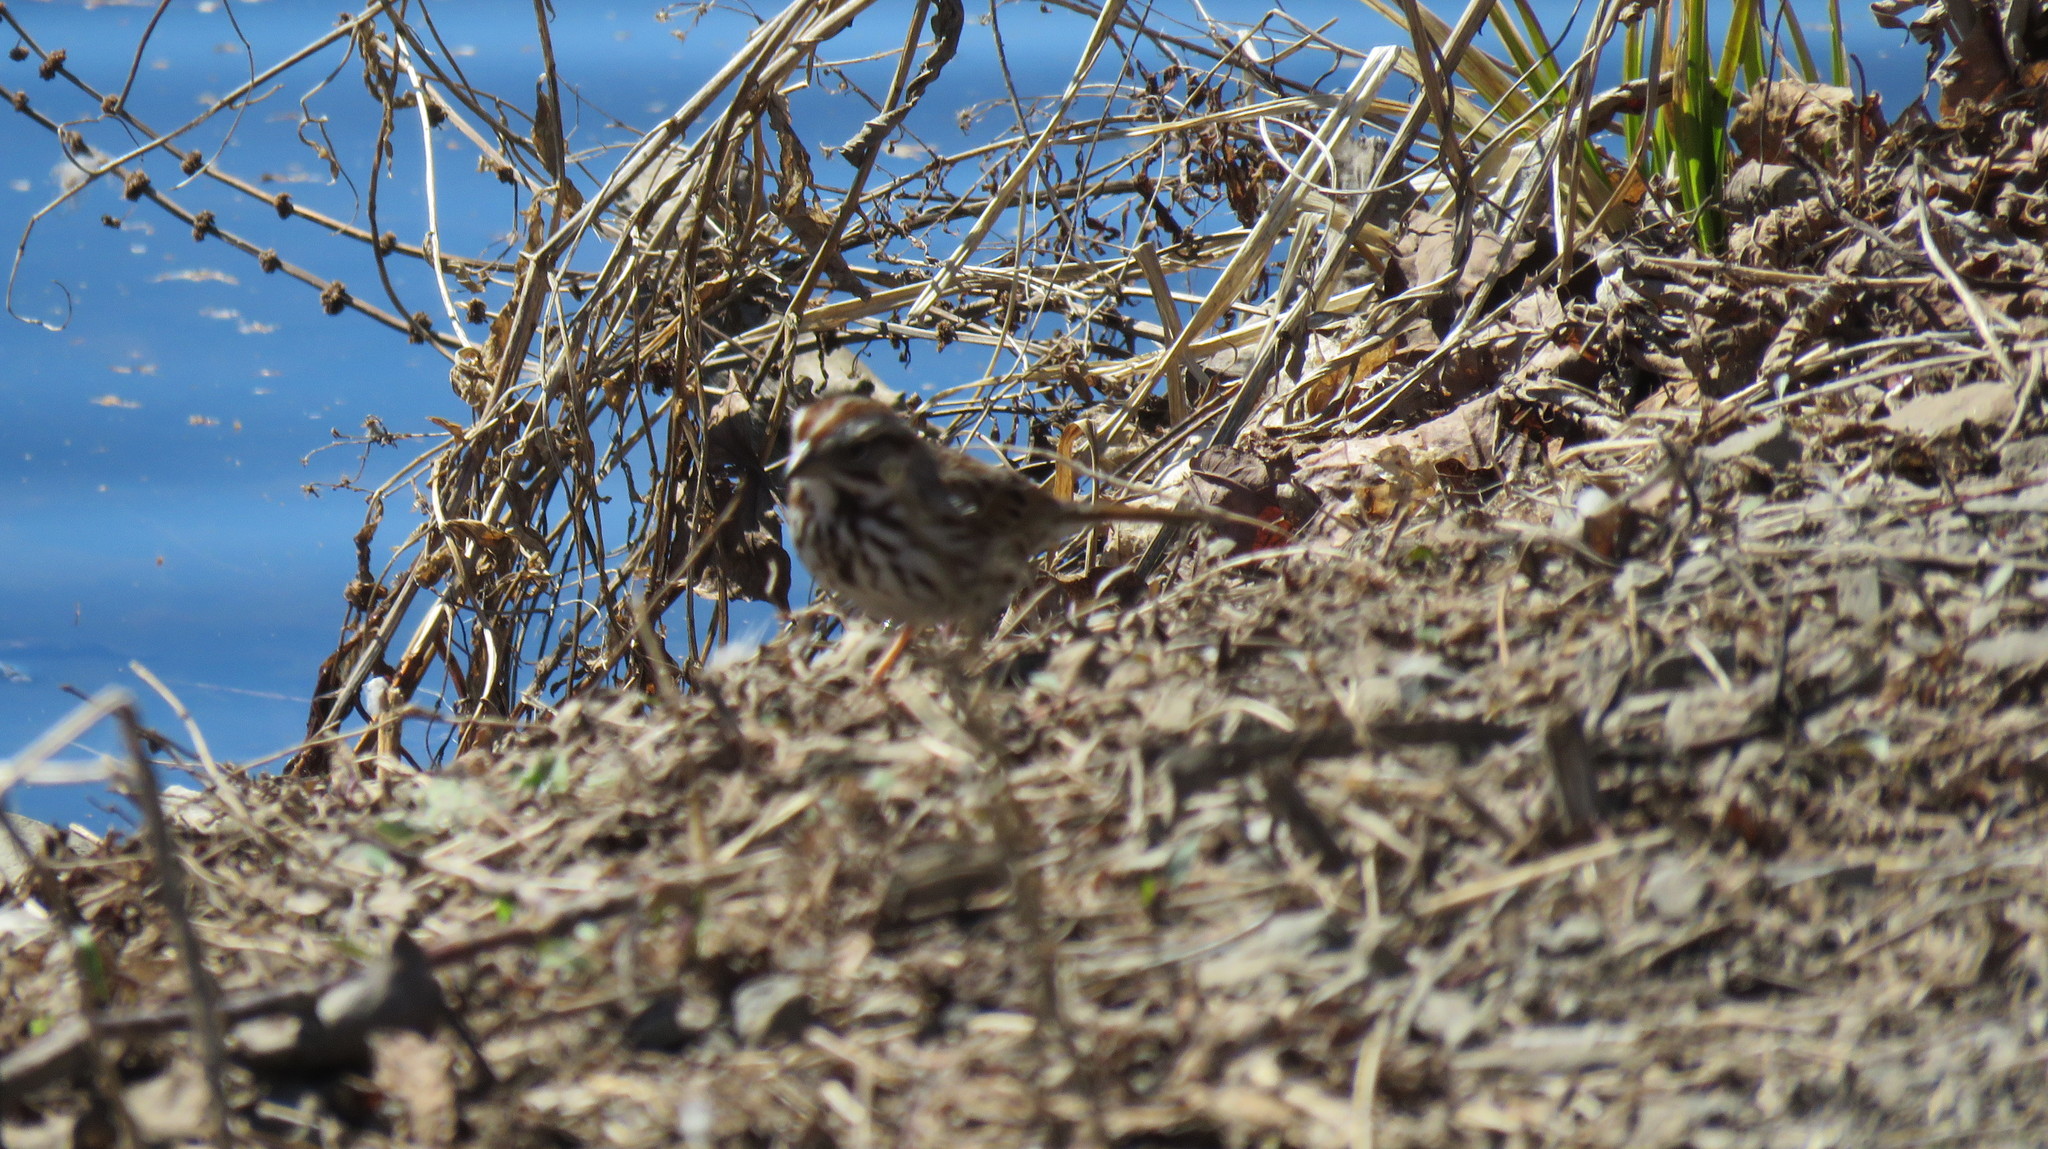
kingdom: Animalia
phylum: Chordata
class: Aves
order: Passeriformes
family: Passerellidae
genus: Melospiza
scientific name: Melospiza melodia
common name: Song sparrow
